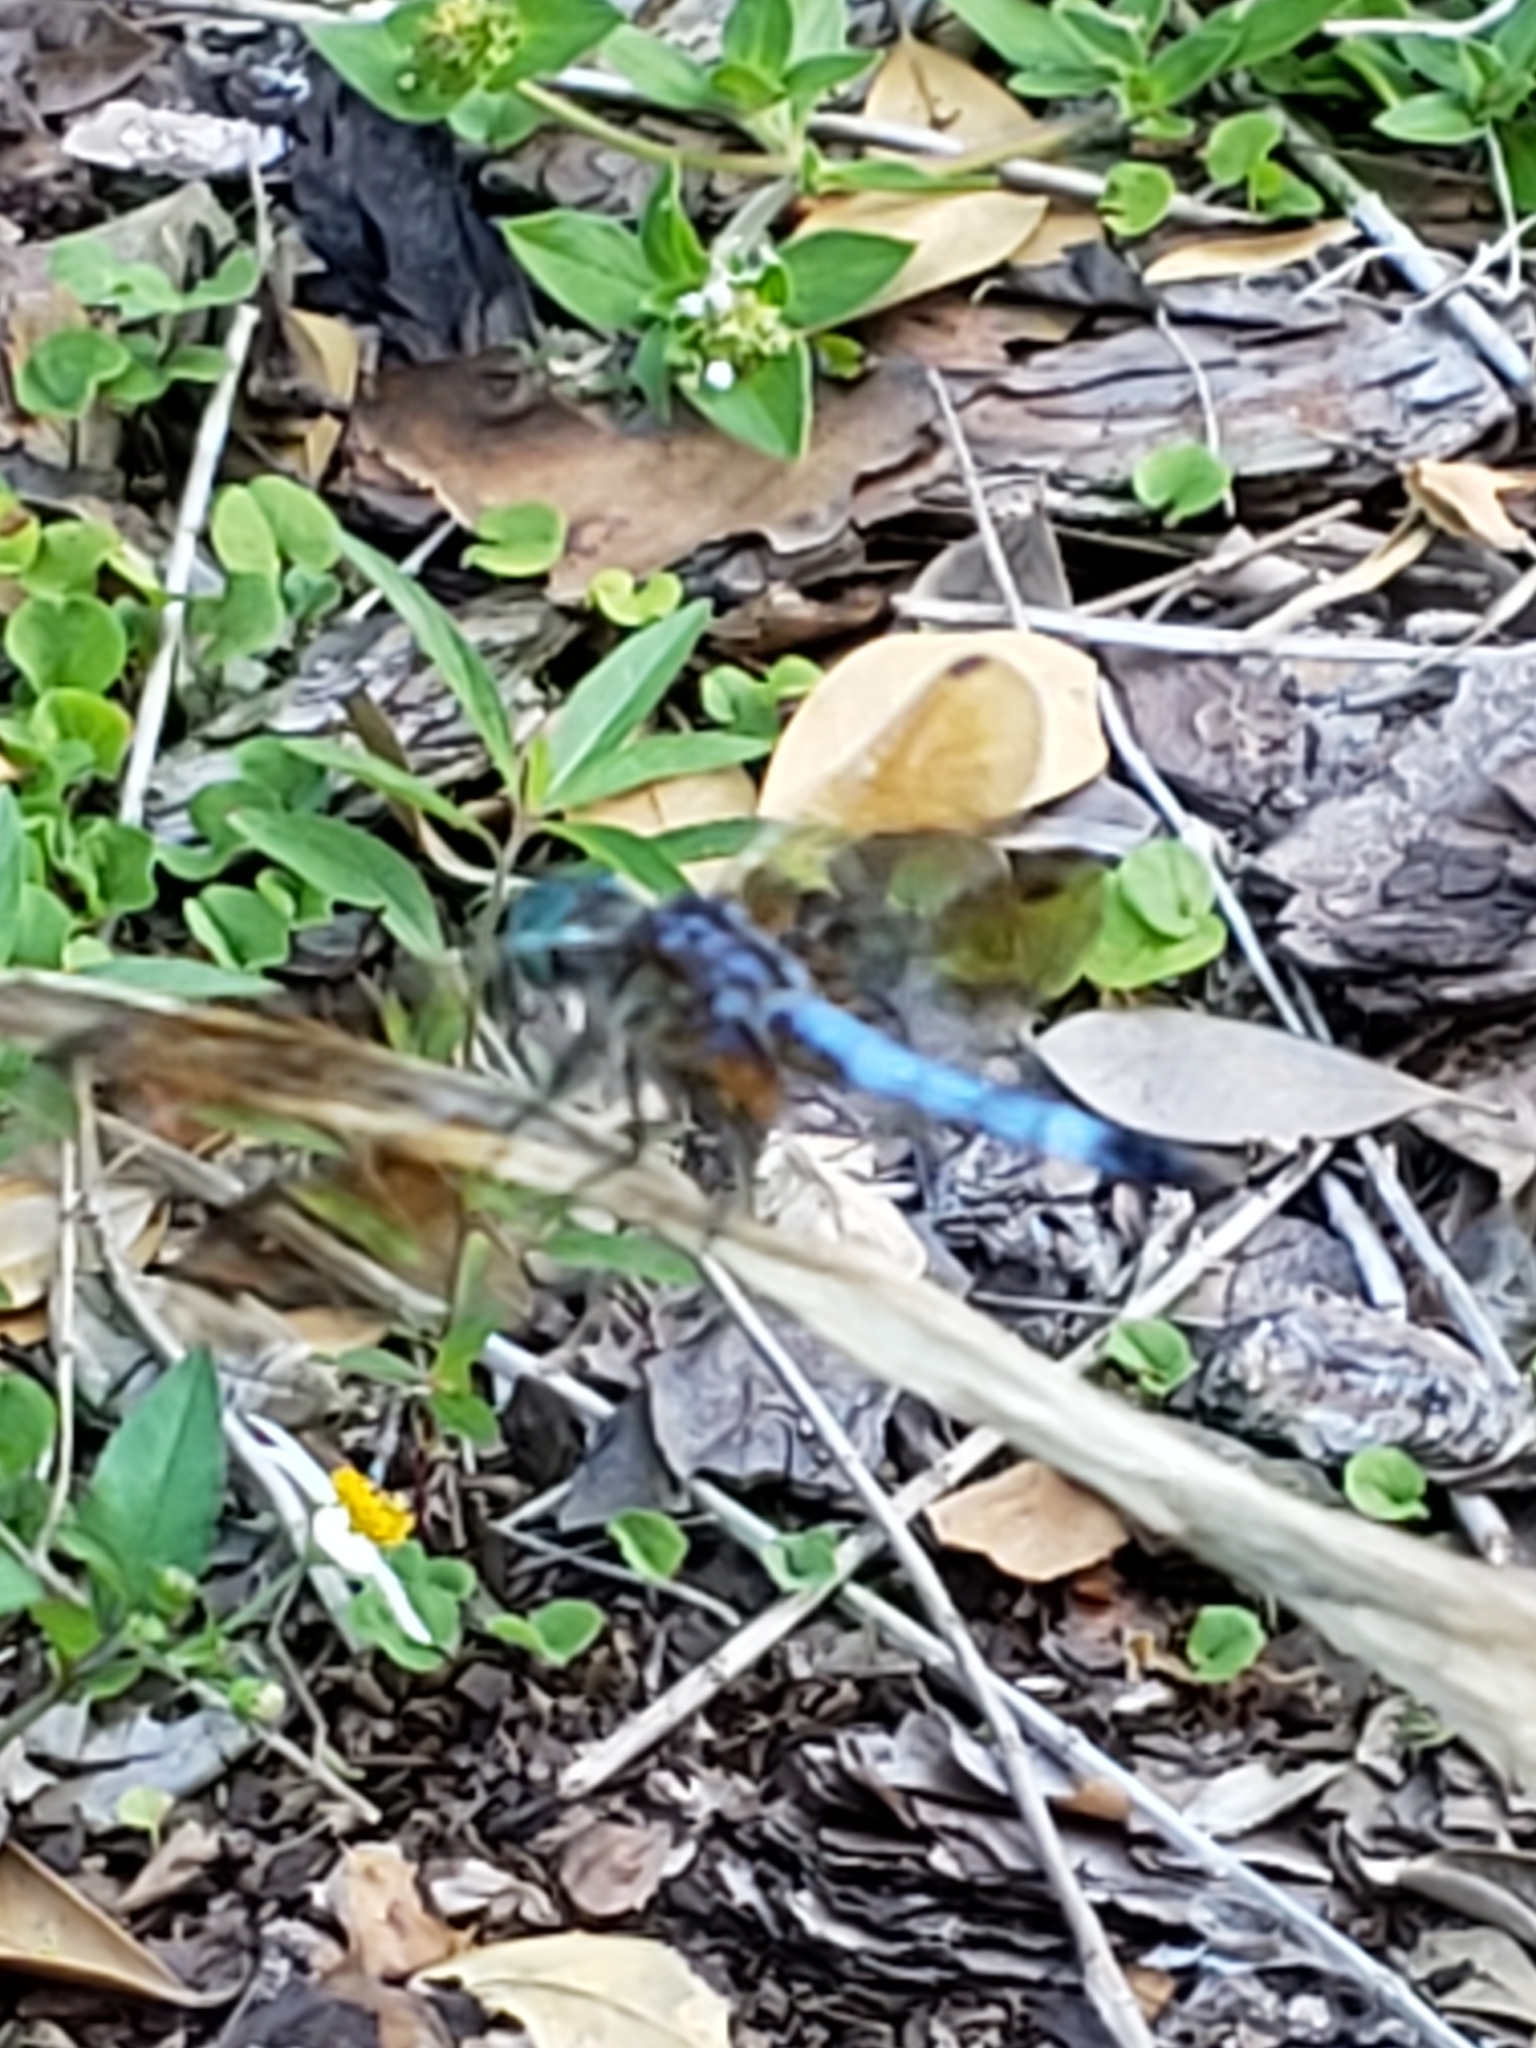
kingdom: Animalia
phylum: Arthropoda
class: Insecta
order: Odonata
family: Libellulidae
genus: Pachydiplax
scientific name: Pachydiplax longipennis
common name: Blue dasher
